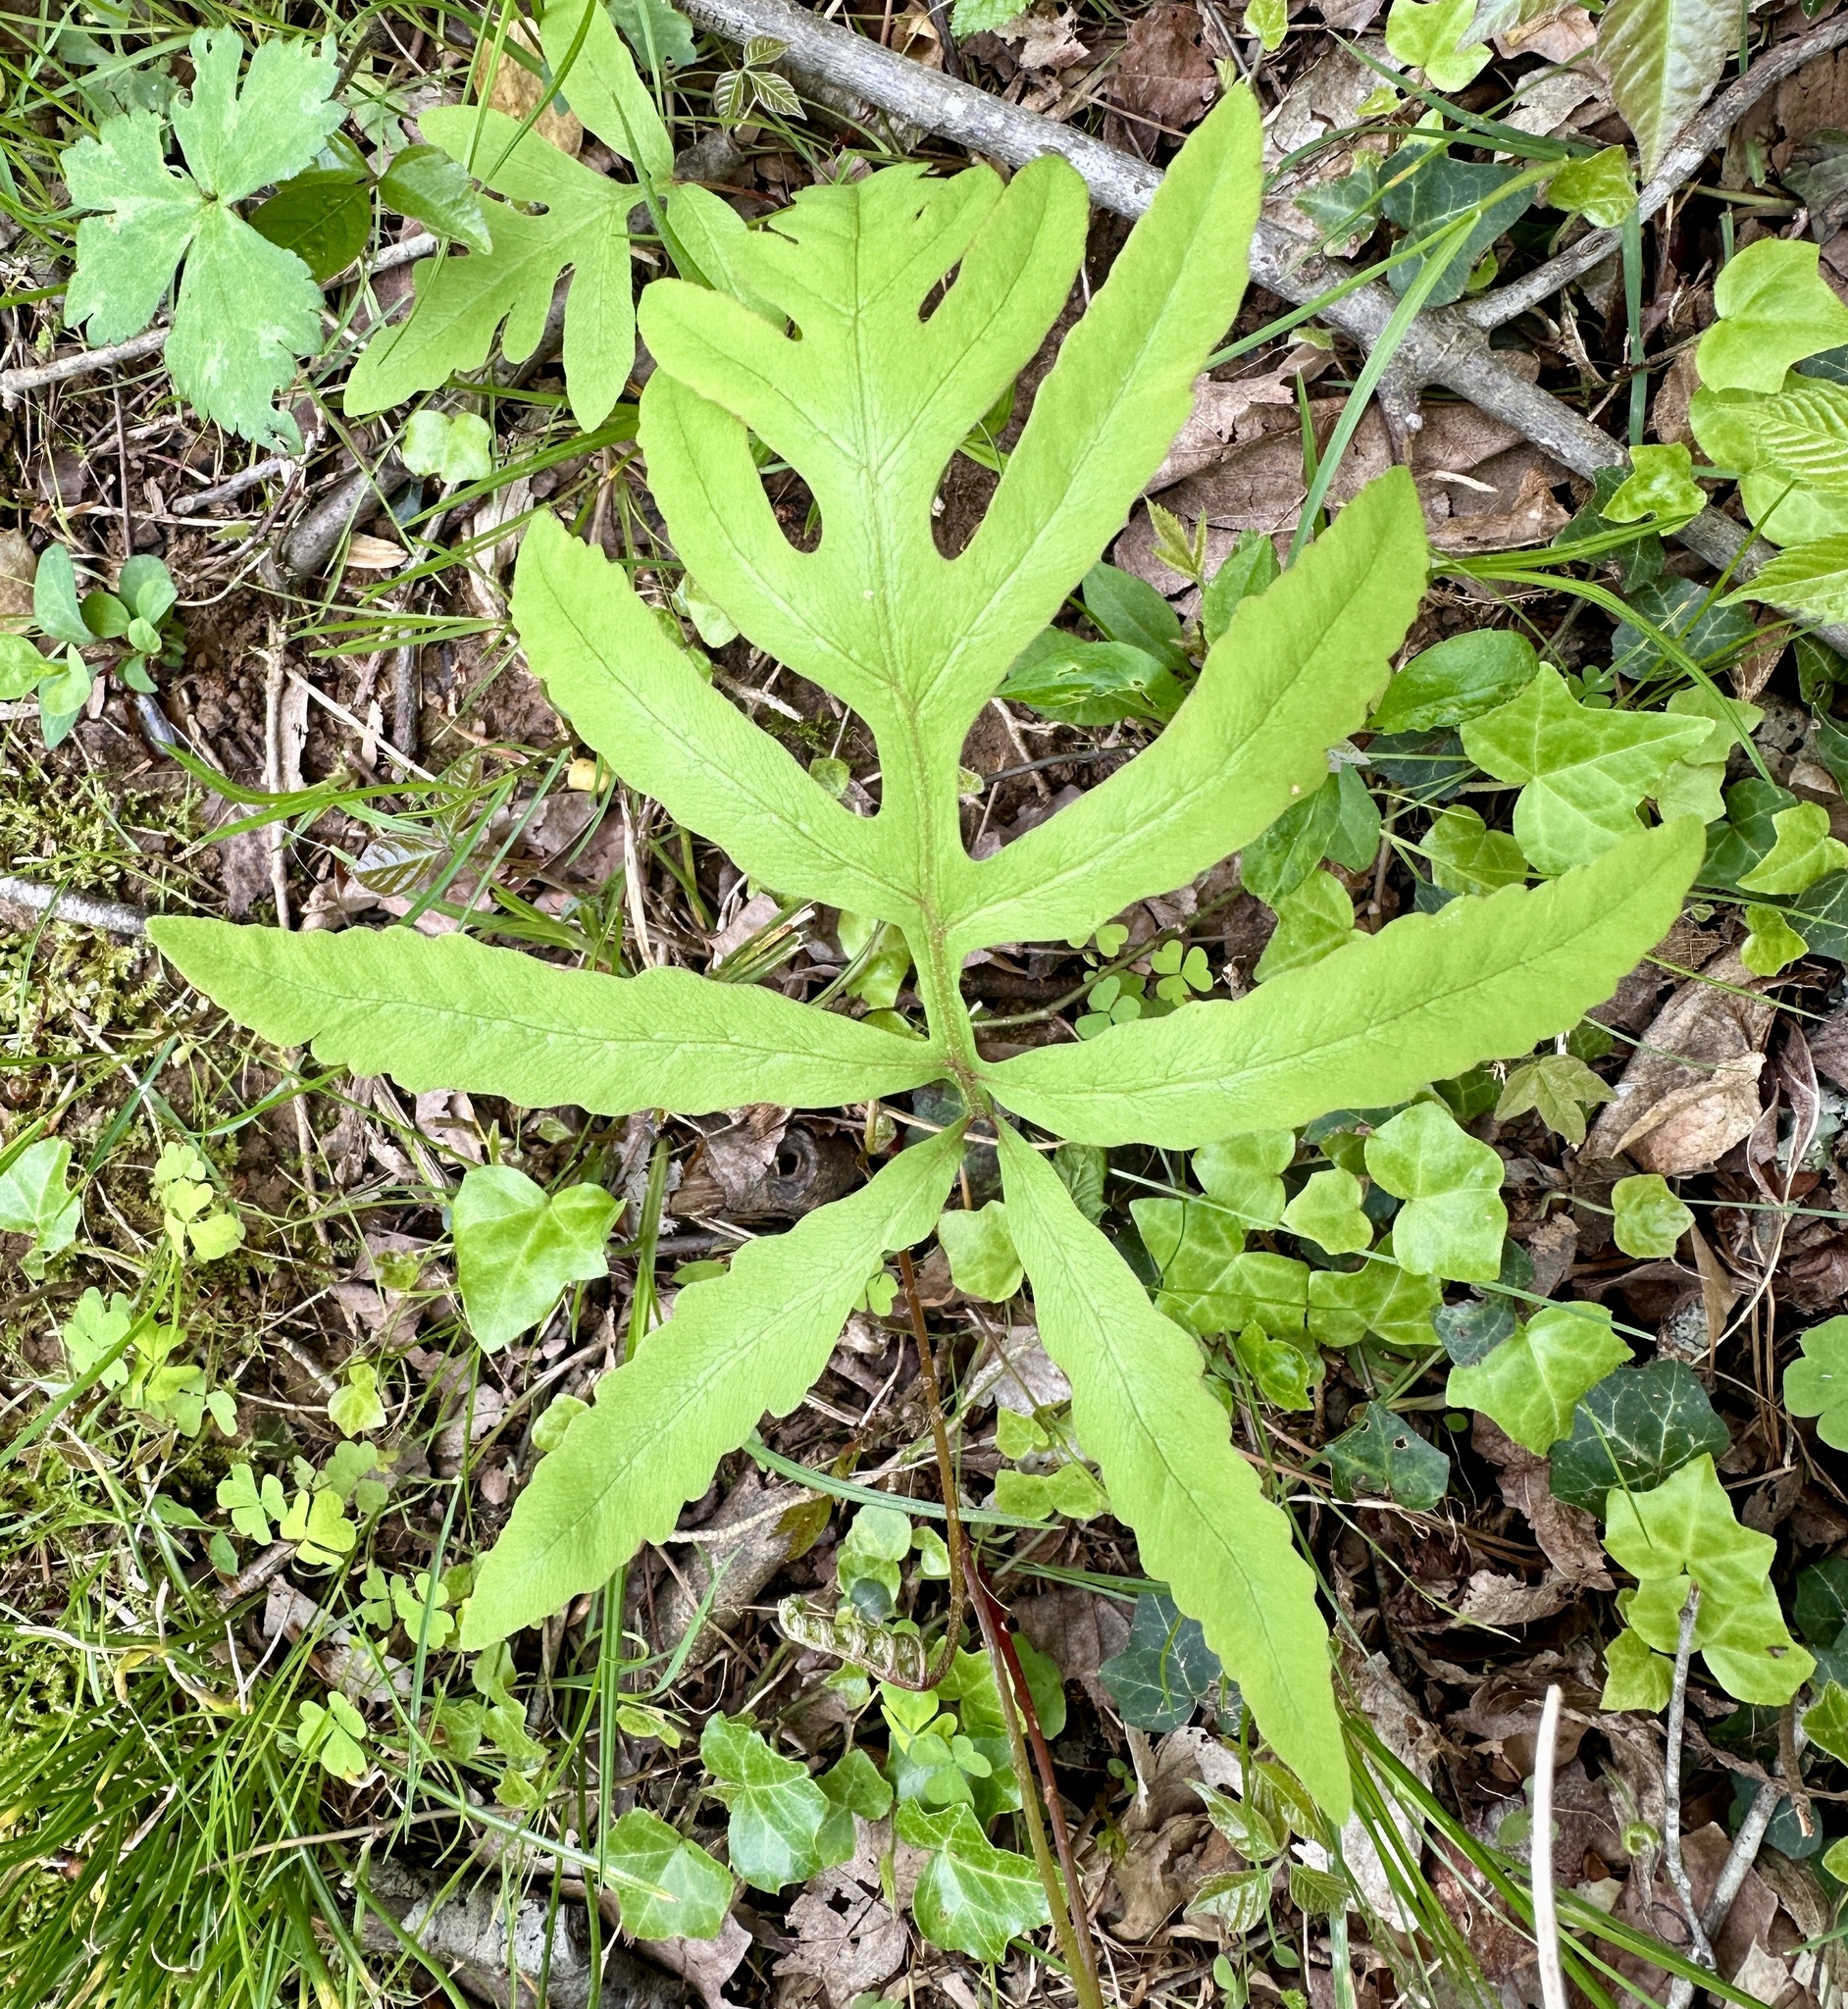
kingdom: Plantae
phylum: Tracheophyta
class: Polypodiopsida
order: Polypodiales
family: Onocleaceae
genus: Onoclea
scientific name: Onoclea sensibilis
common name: Sensitive fern
